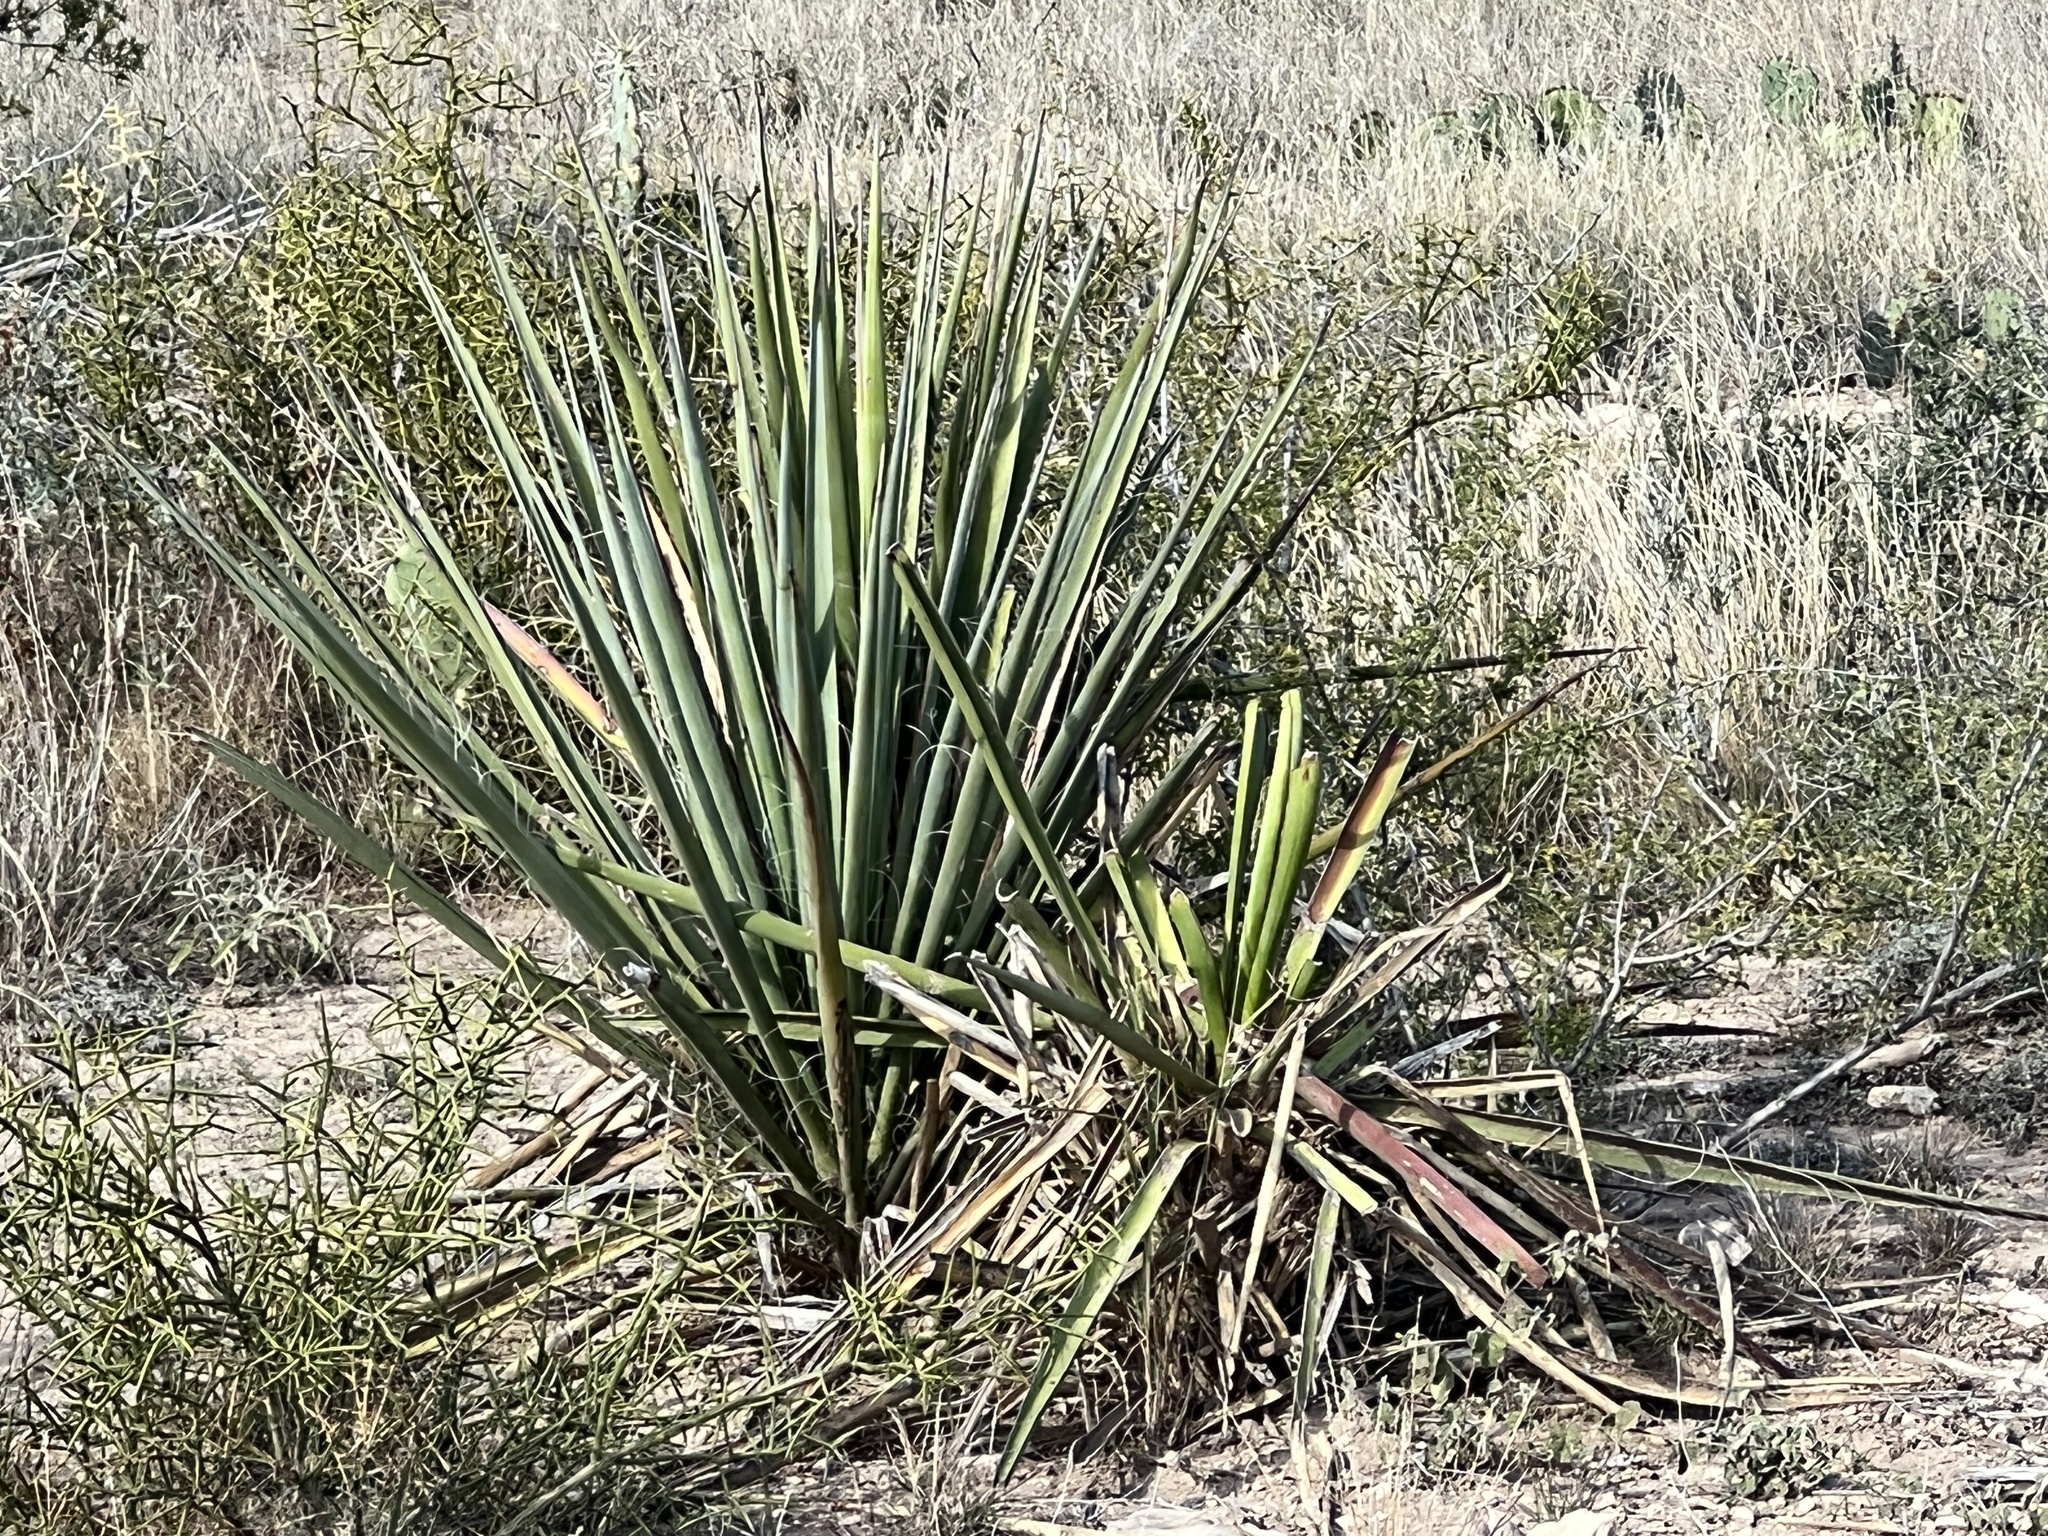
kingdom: Plantae
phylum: Tracheophyta
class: Liliopsida
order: Asparagales
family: Asparagaceae
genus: Yucca
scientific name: Yucca treculiana
